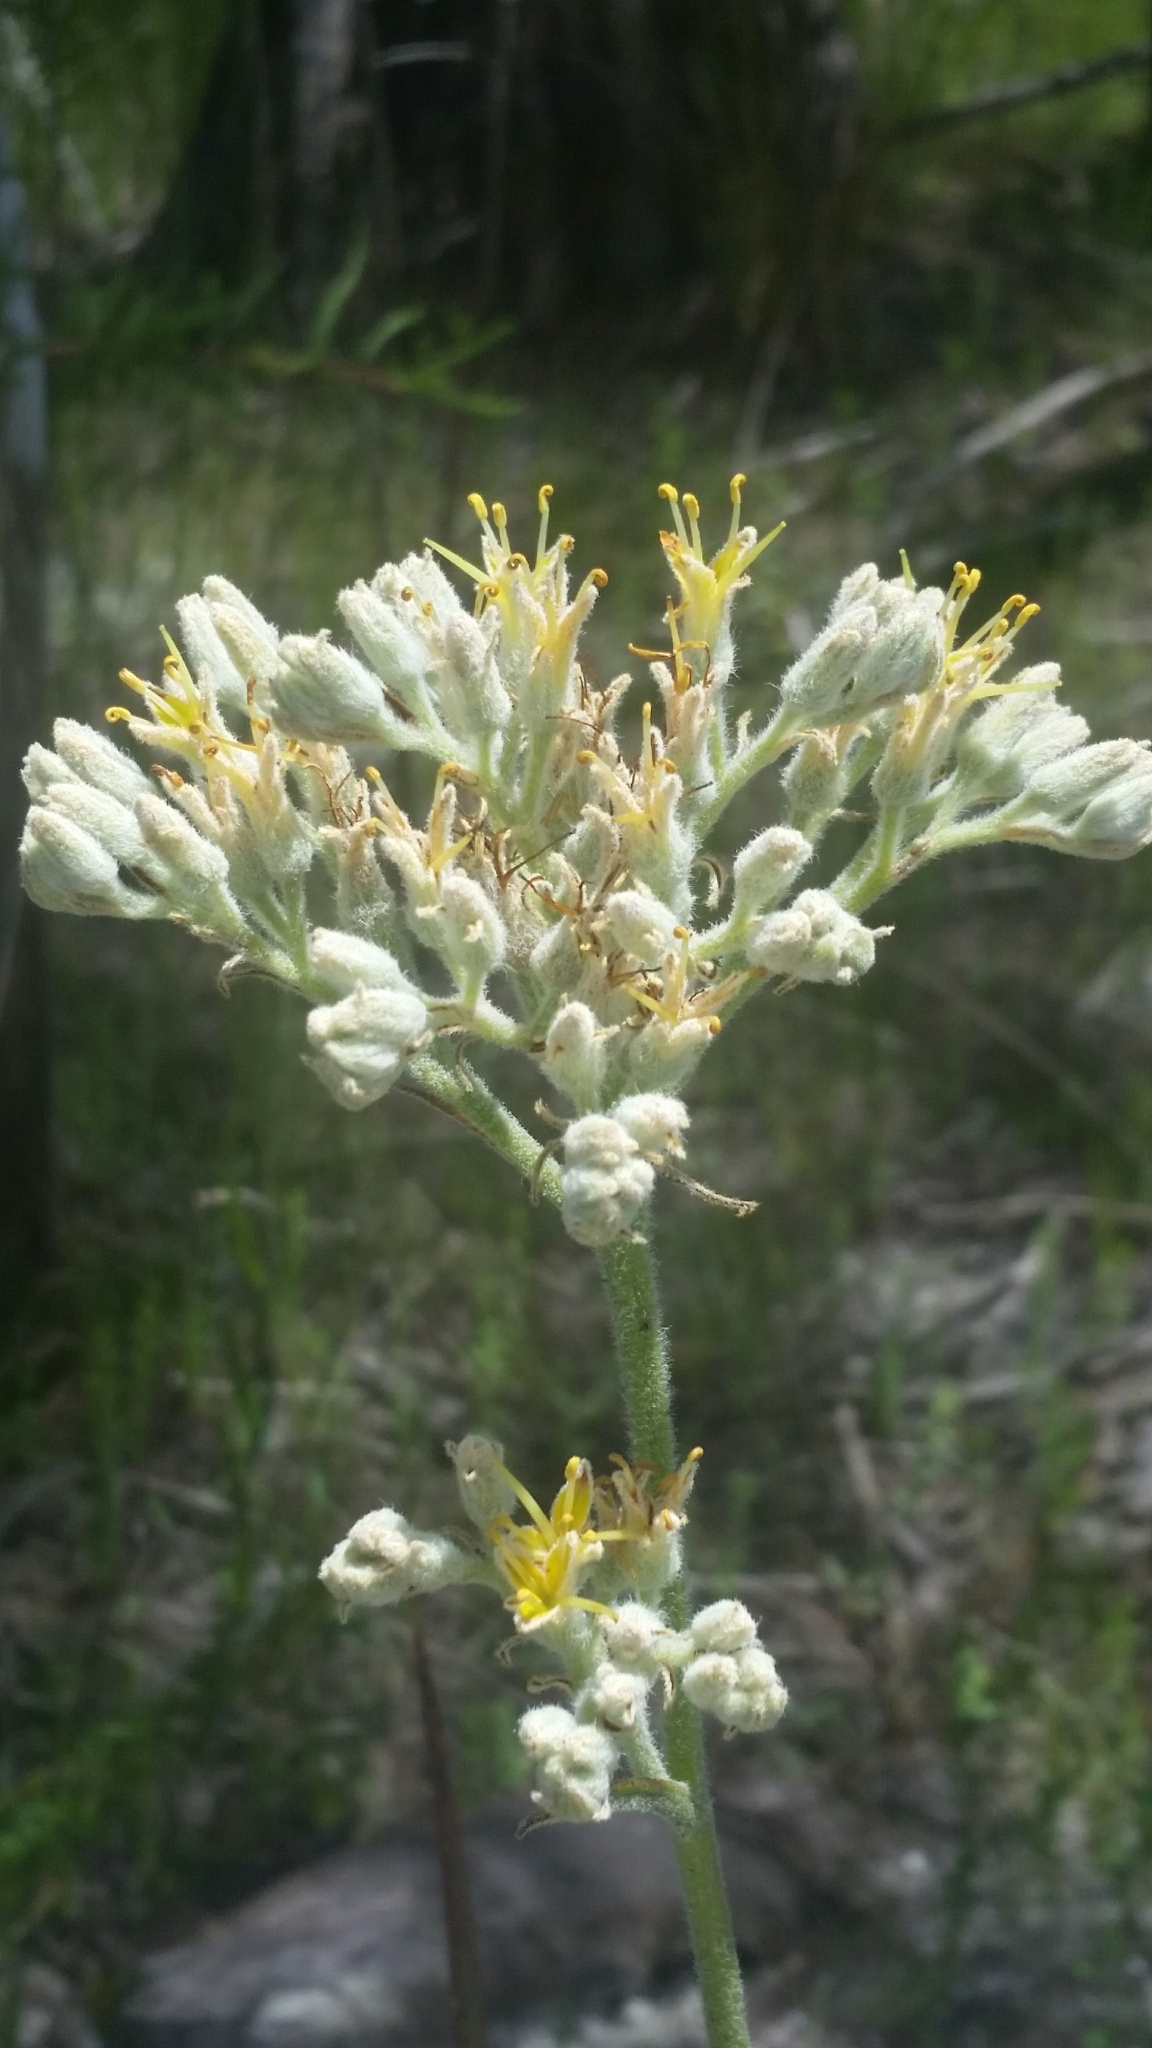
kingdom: Plantae
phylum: Tracheophyta
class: Liliopsida
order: Commelinales
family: Haemodoraceae
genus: Lachnanthes
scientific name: Lachnanthes caroliana
